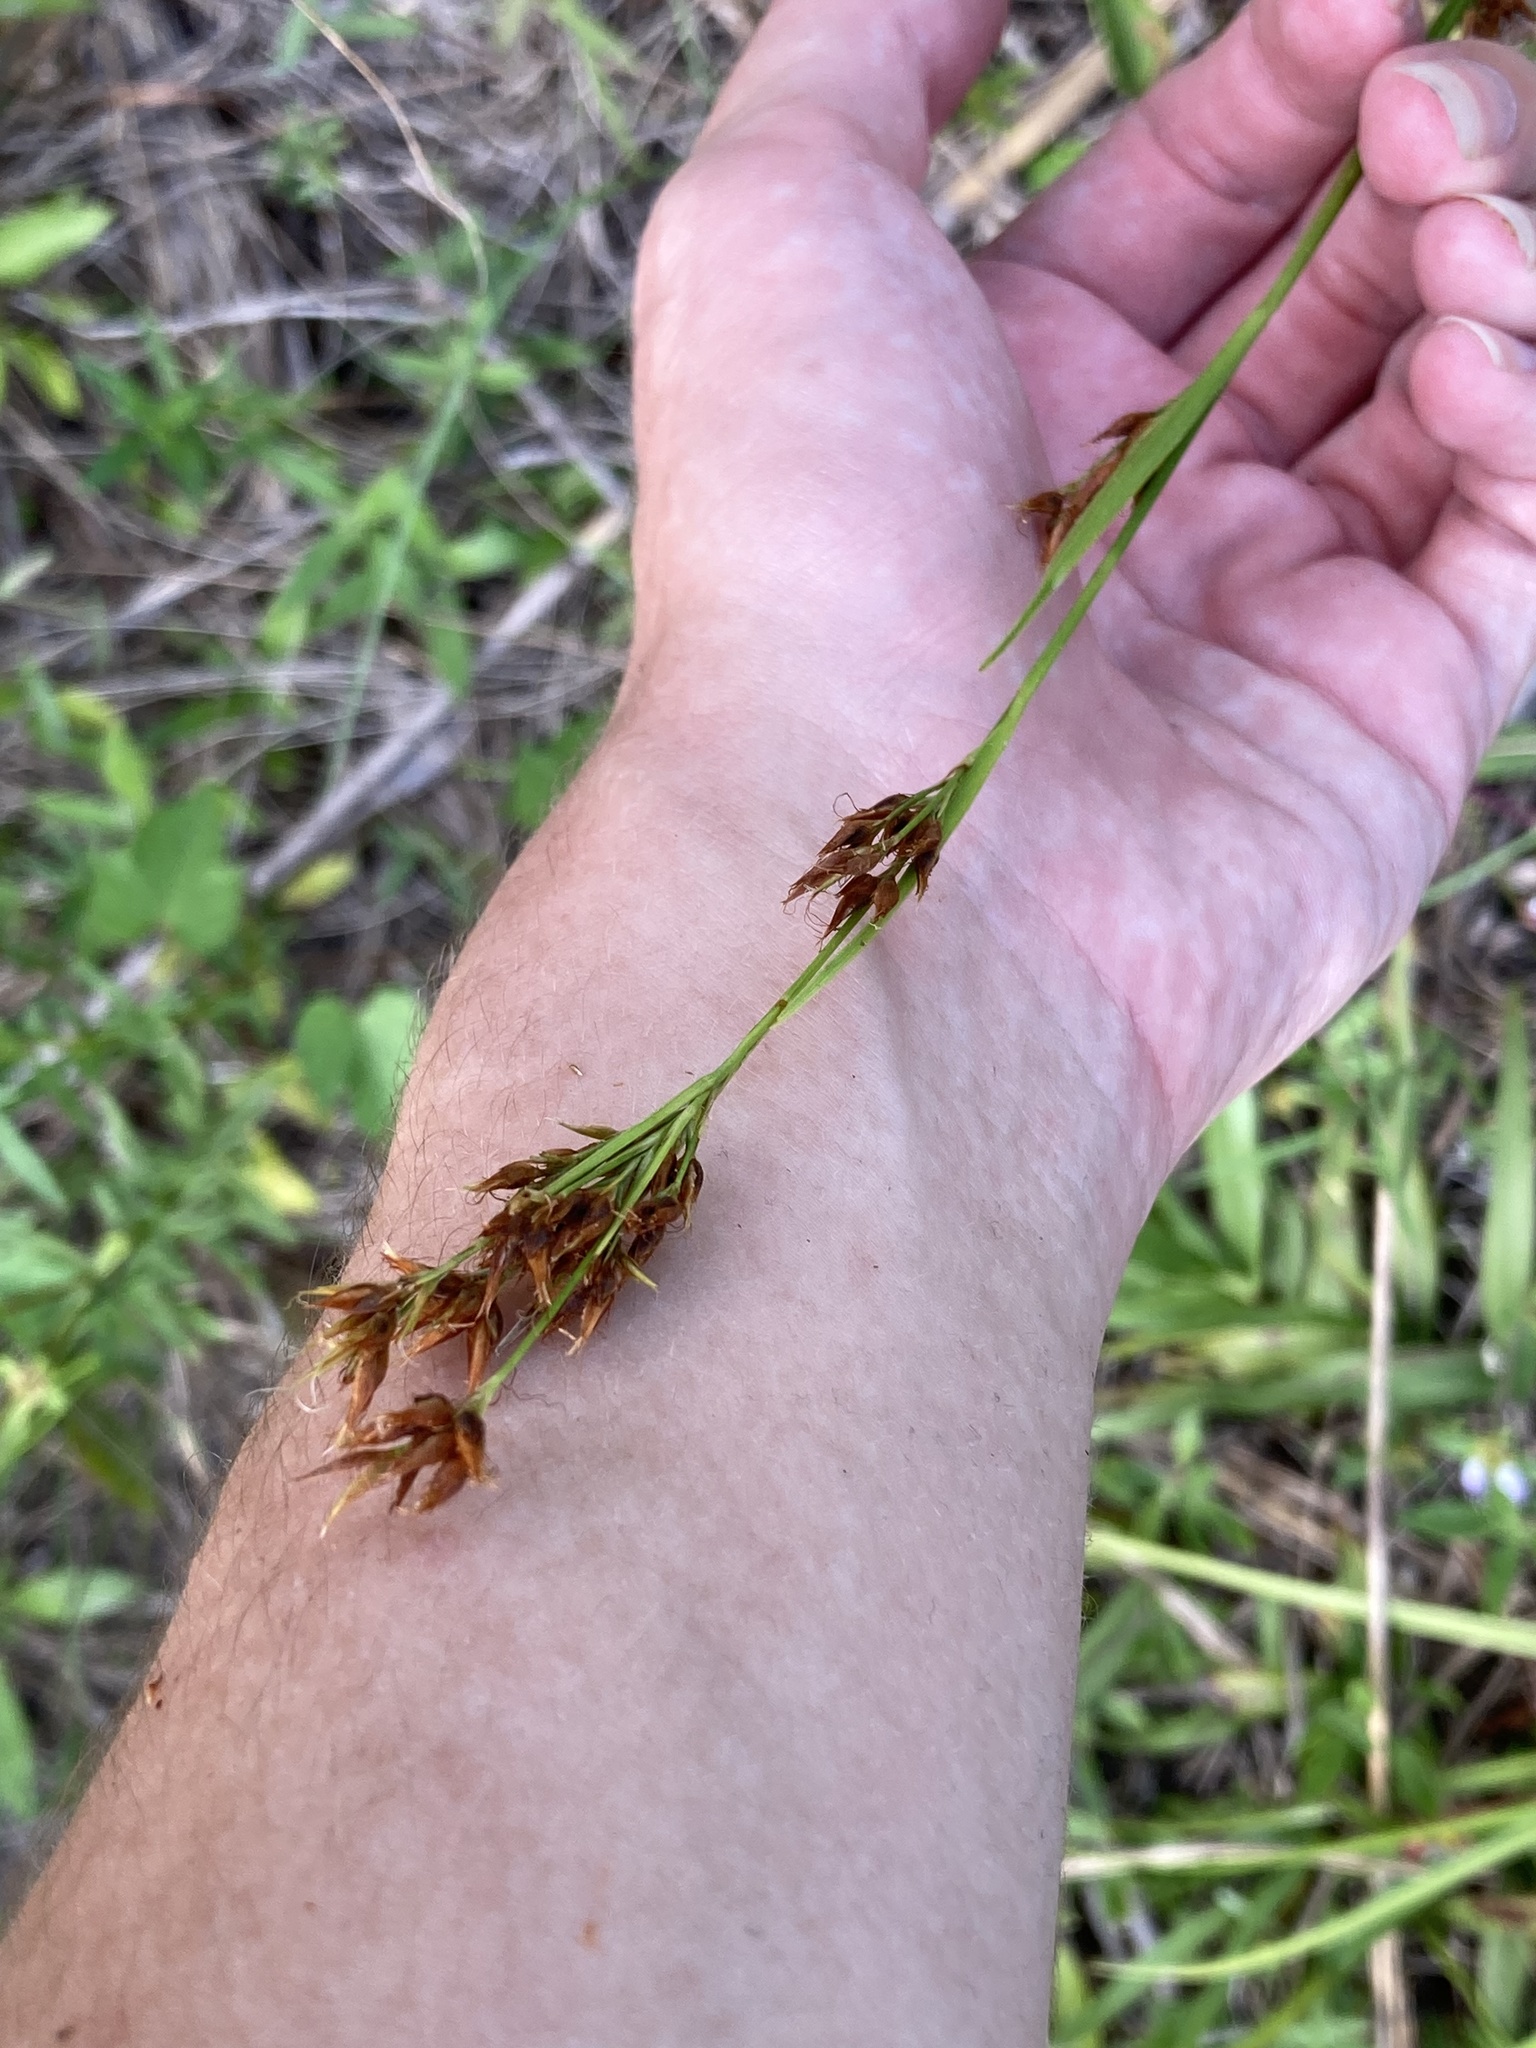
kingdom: Plantae
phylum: Tracheophyta
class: Liliopsida
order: Poales
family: Cyperaceae
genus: Rhynchospora
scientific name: Rhynchospora odorata
